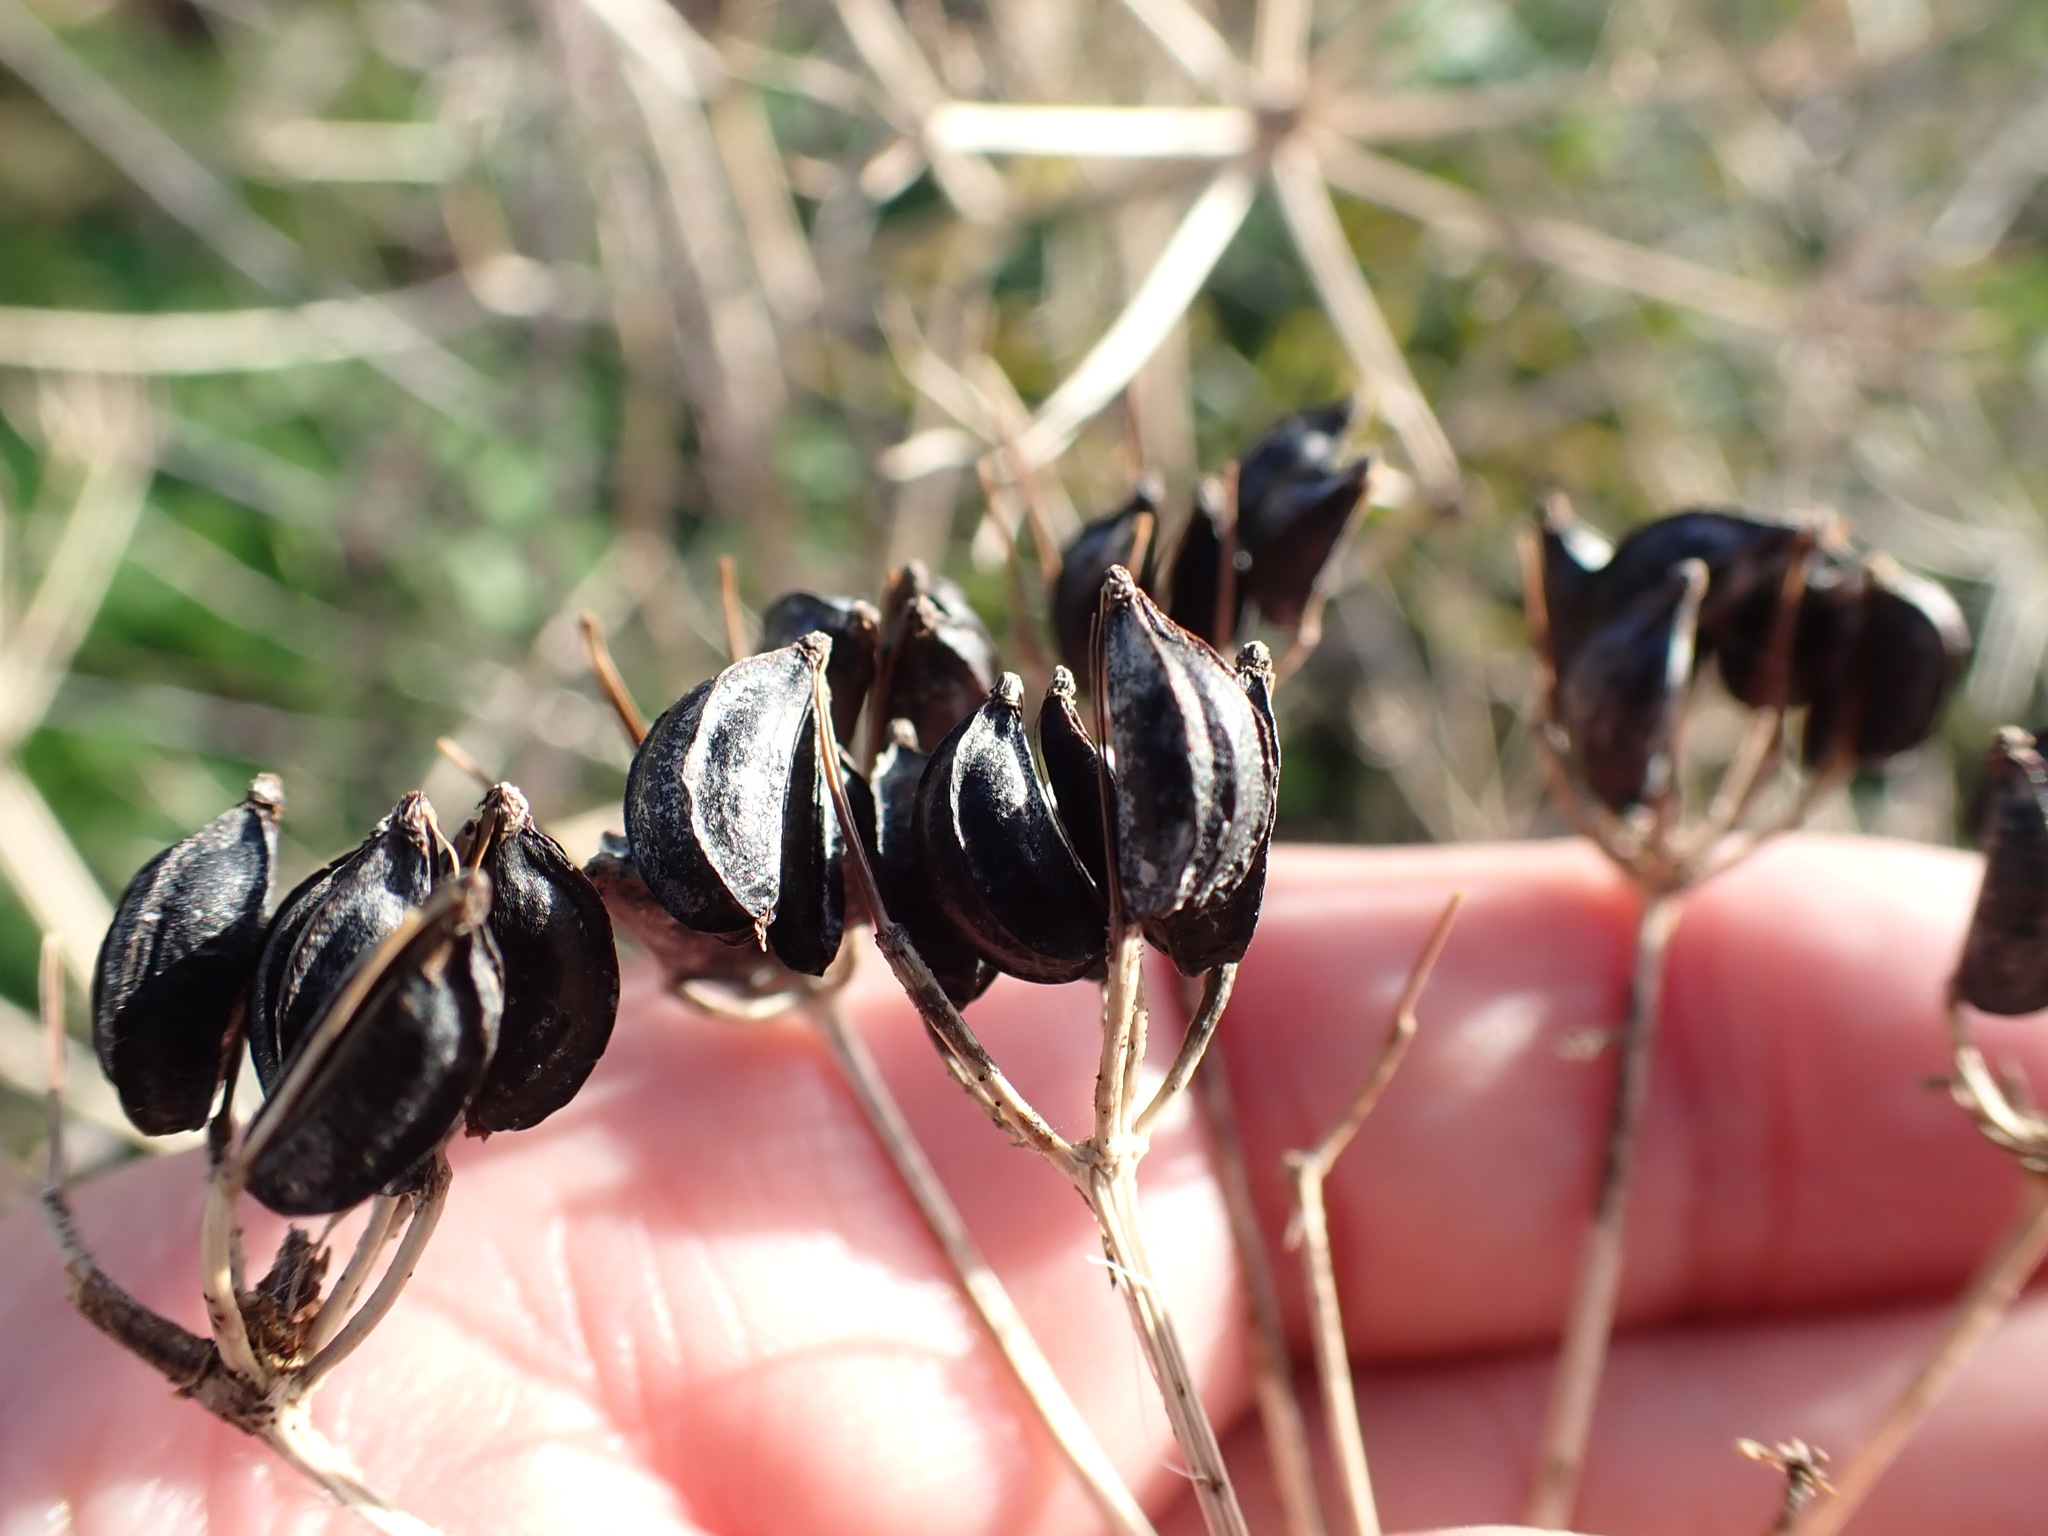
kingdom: Plantae
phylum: Tracheophyta
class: Magnoliopsida
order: Apiales
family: Apiaceae
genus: Smyrnium
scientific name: Smyrnium olusatrum
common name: Alexanders
